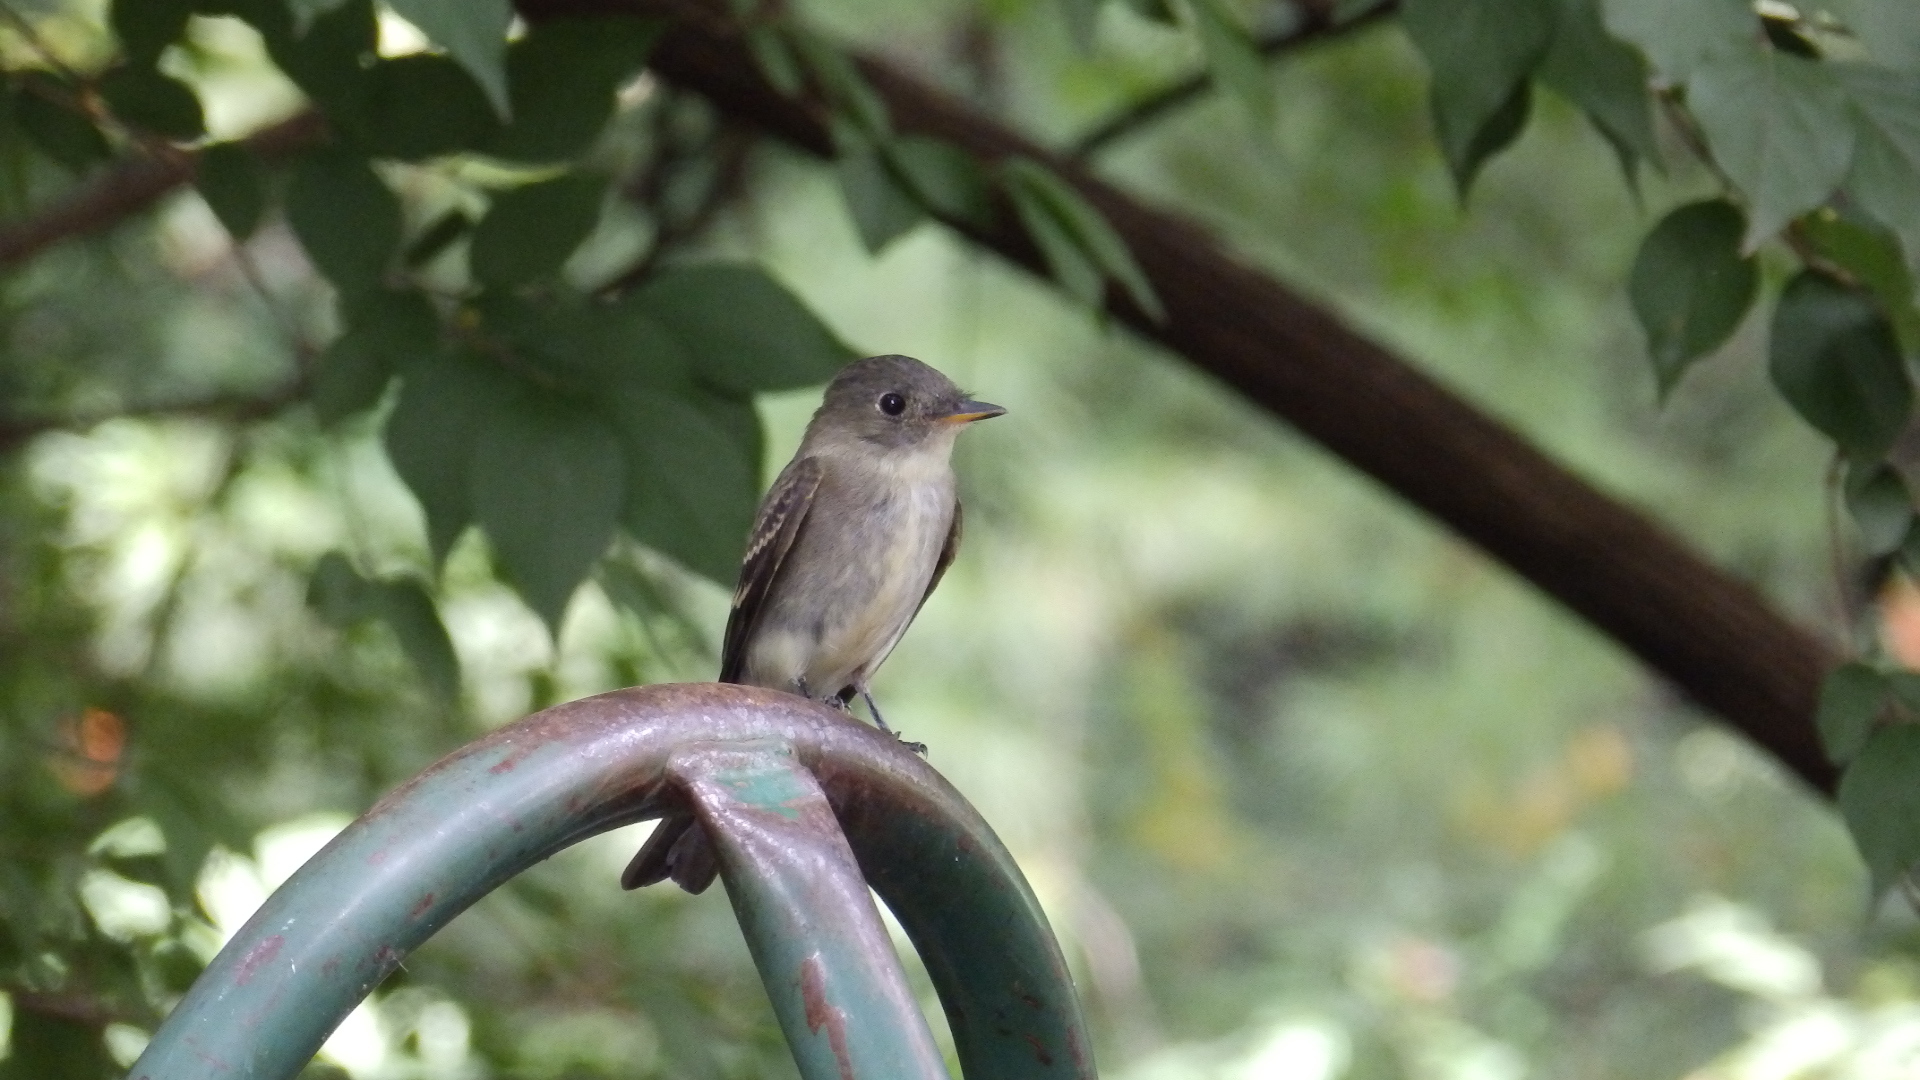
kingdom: Animalia
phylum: Chordata
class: Aves
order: Passeriformes
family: Tyrannidae
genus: Contopus
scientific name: Contopus virens
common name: Eastern wood-pewee
